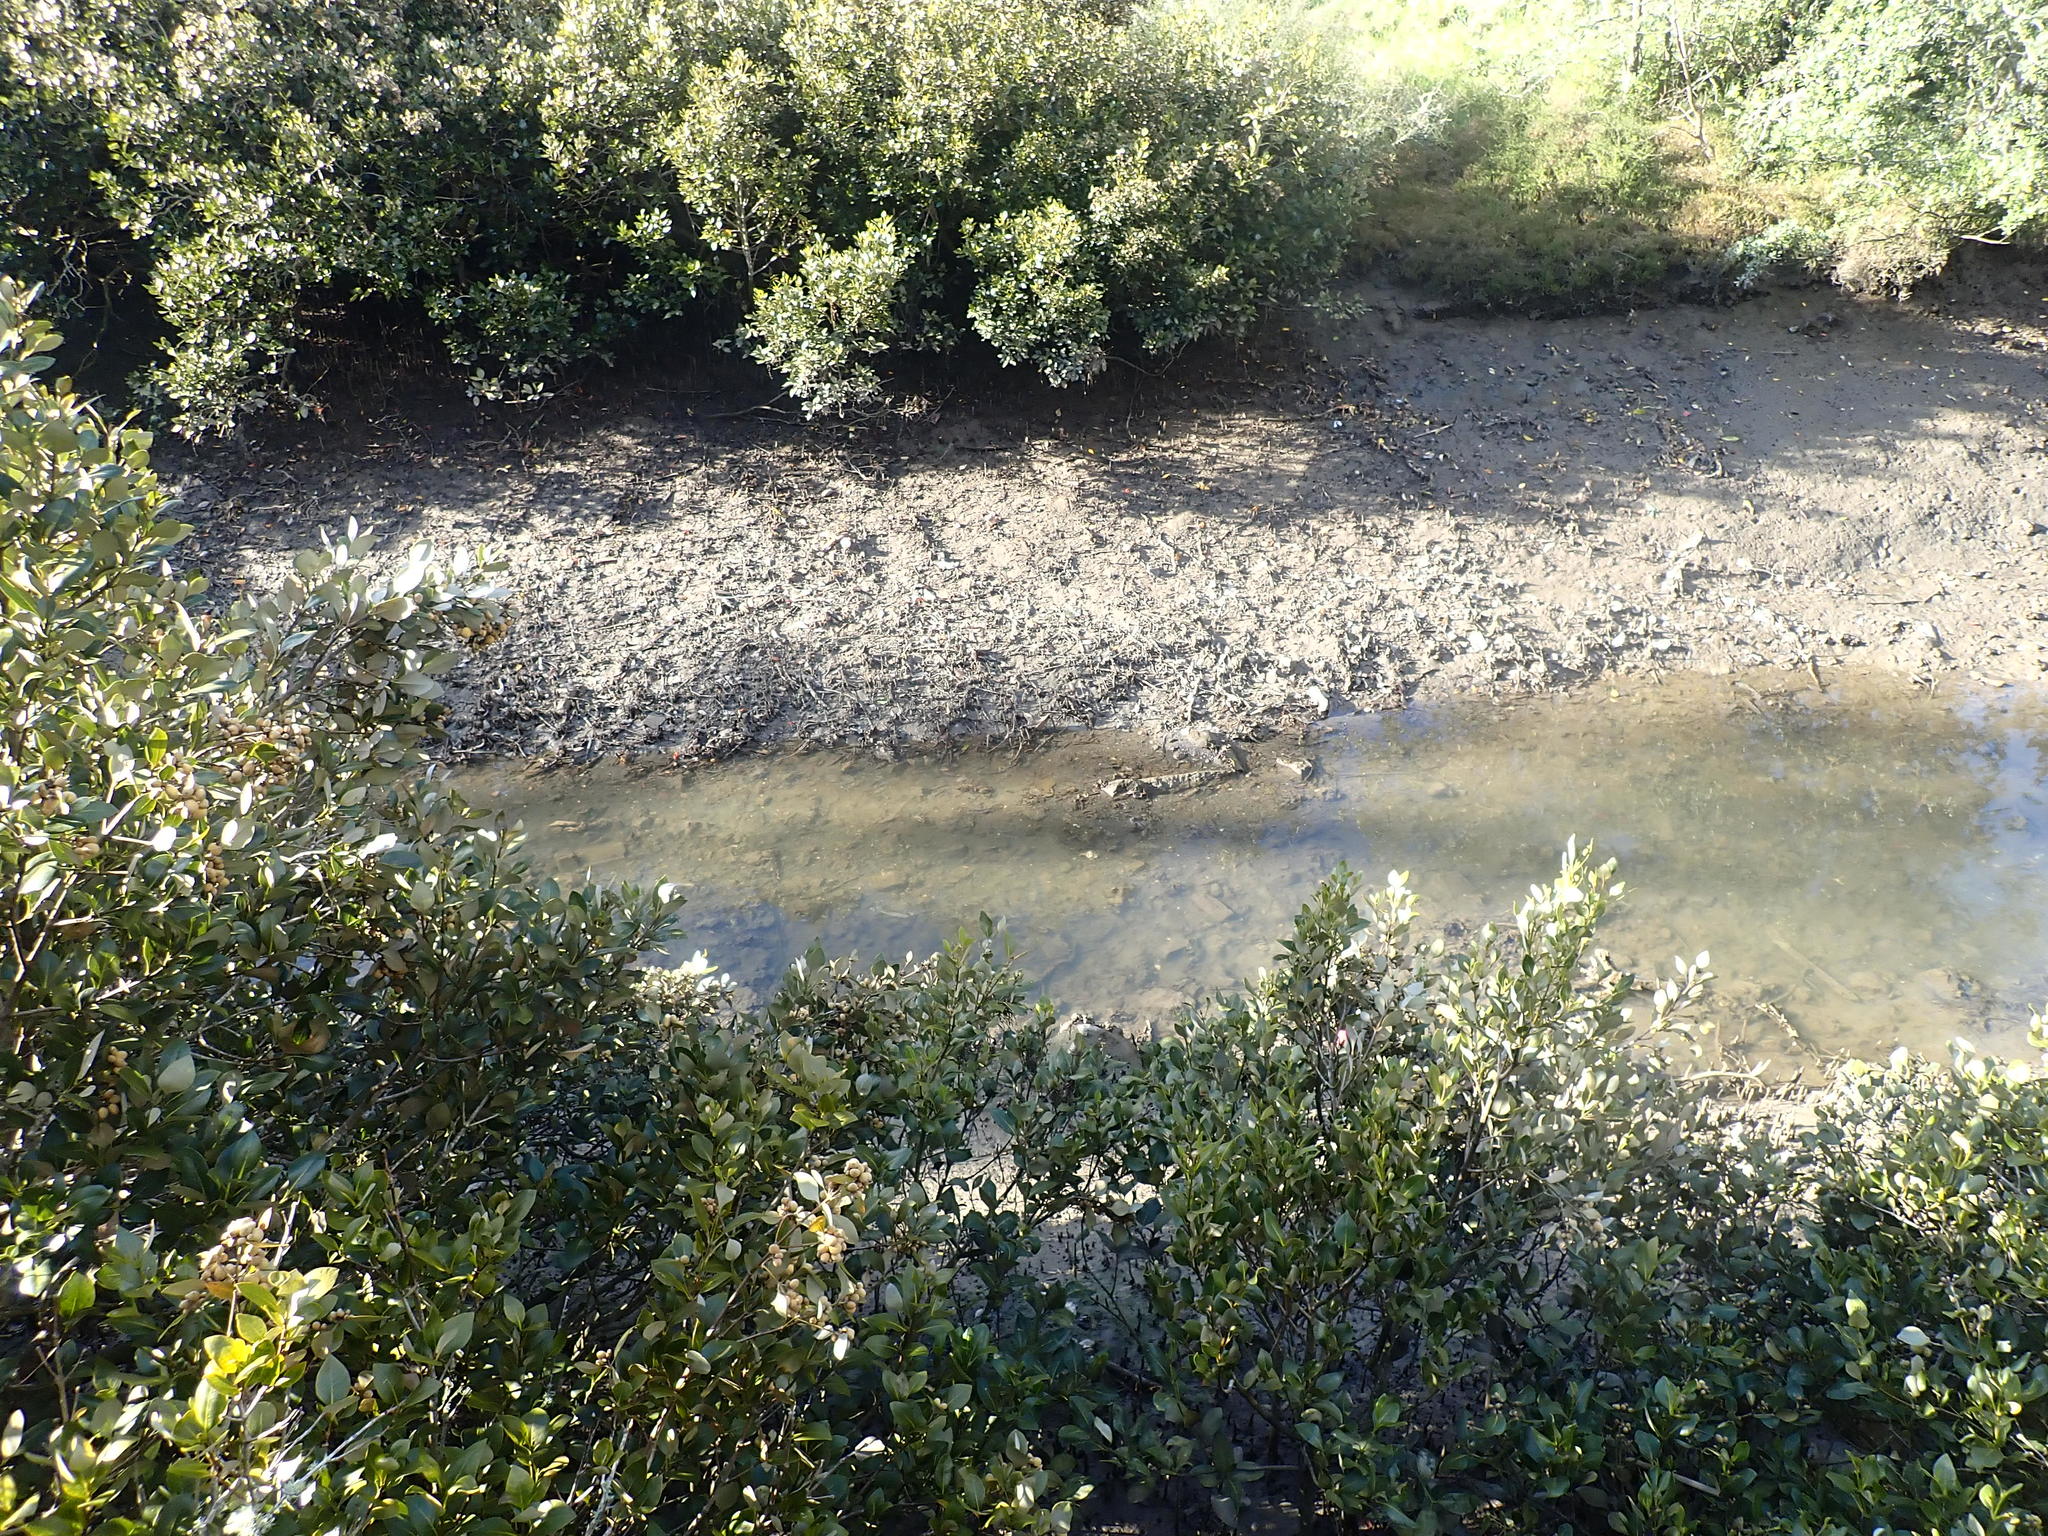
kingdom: Plantae
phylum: Tracheophyta
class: Magnoliopsida
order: Lamiales
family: Acanthaceae
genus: Avicennia
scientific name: Avicennia marina
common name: Gray mangrove
